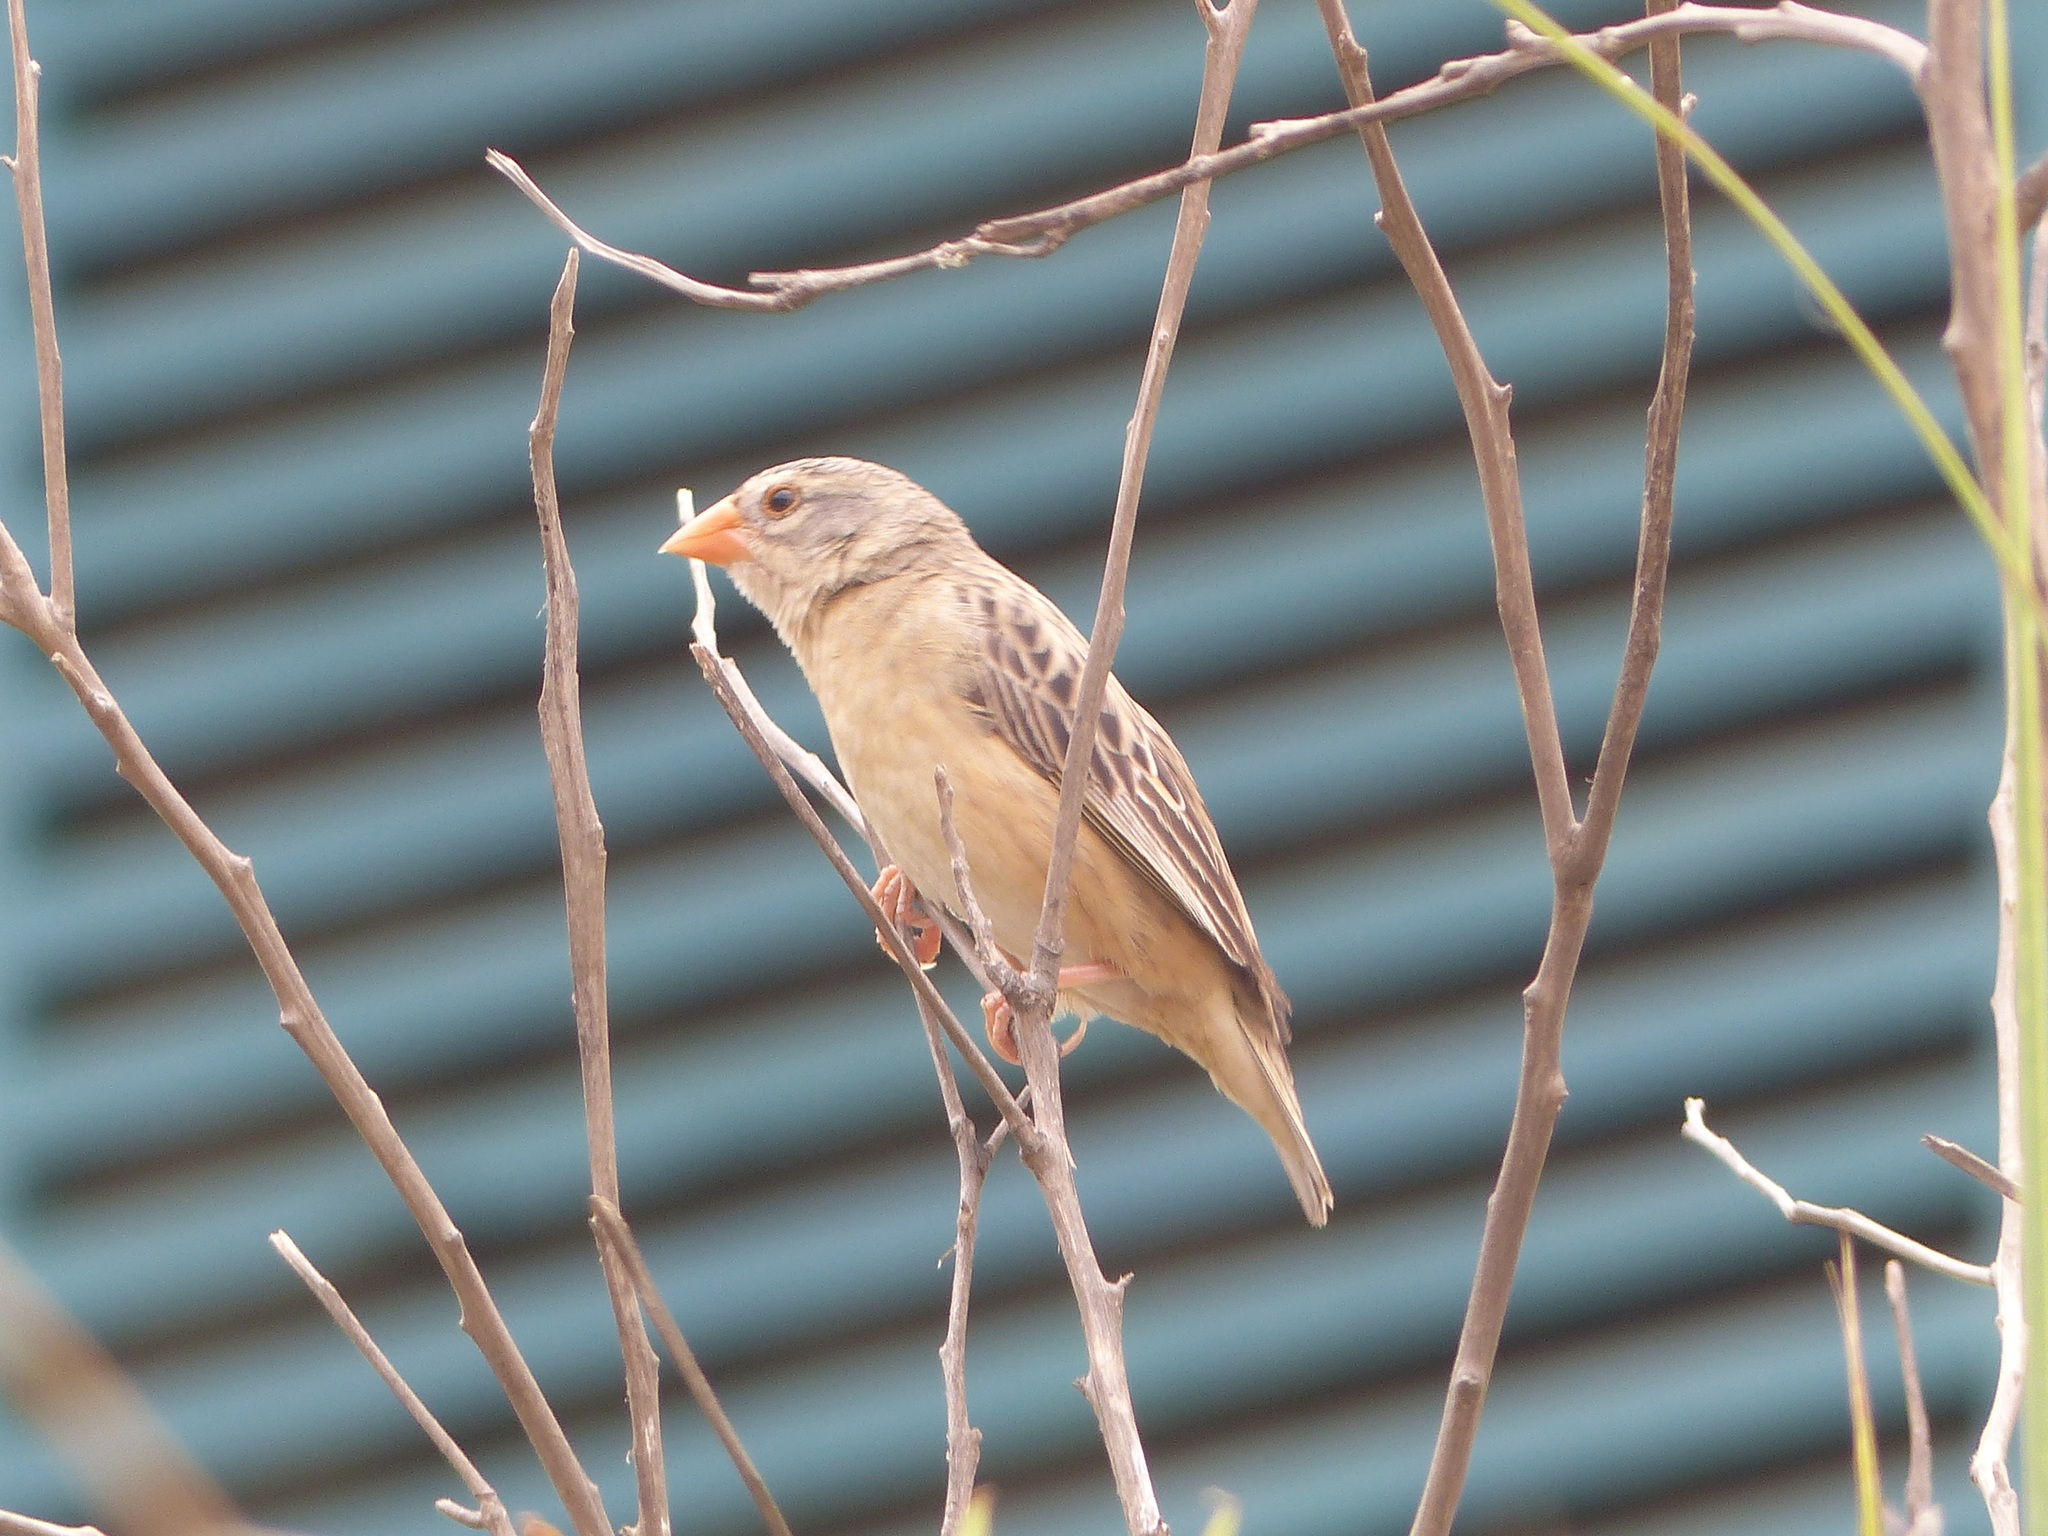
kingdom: Animalia
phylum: Chordata
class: Aves
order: Passeriformes
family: Ploceidae
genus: Quelea
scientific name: Quelea quelea
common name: Red-billed quelea
